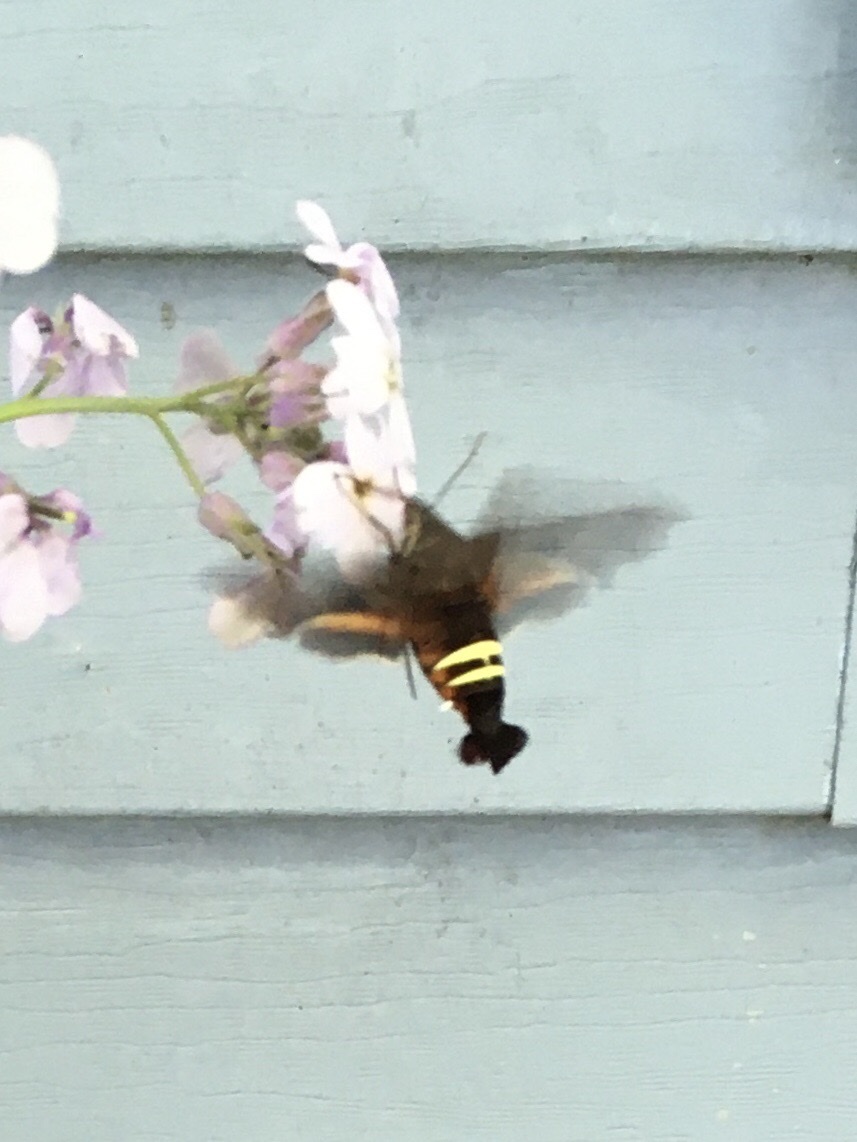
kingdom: Animalia
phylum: Arthropoda
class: Insecta
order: Lepidoptera
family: Sphingidae
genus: Amphion
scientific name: Amphion floridensis
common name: Nessus sphinx
